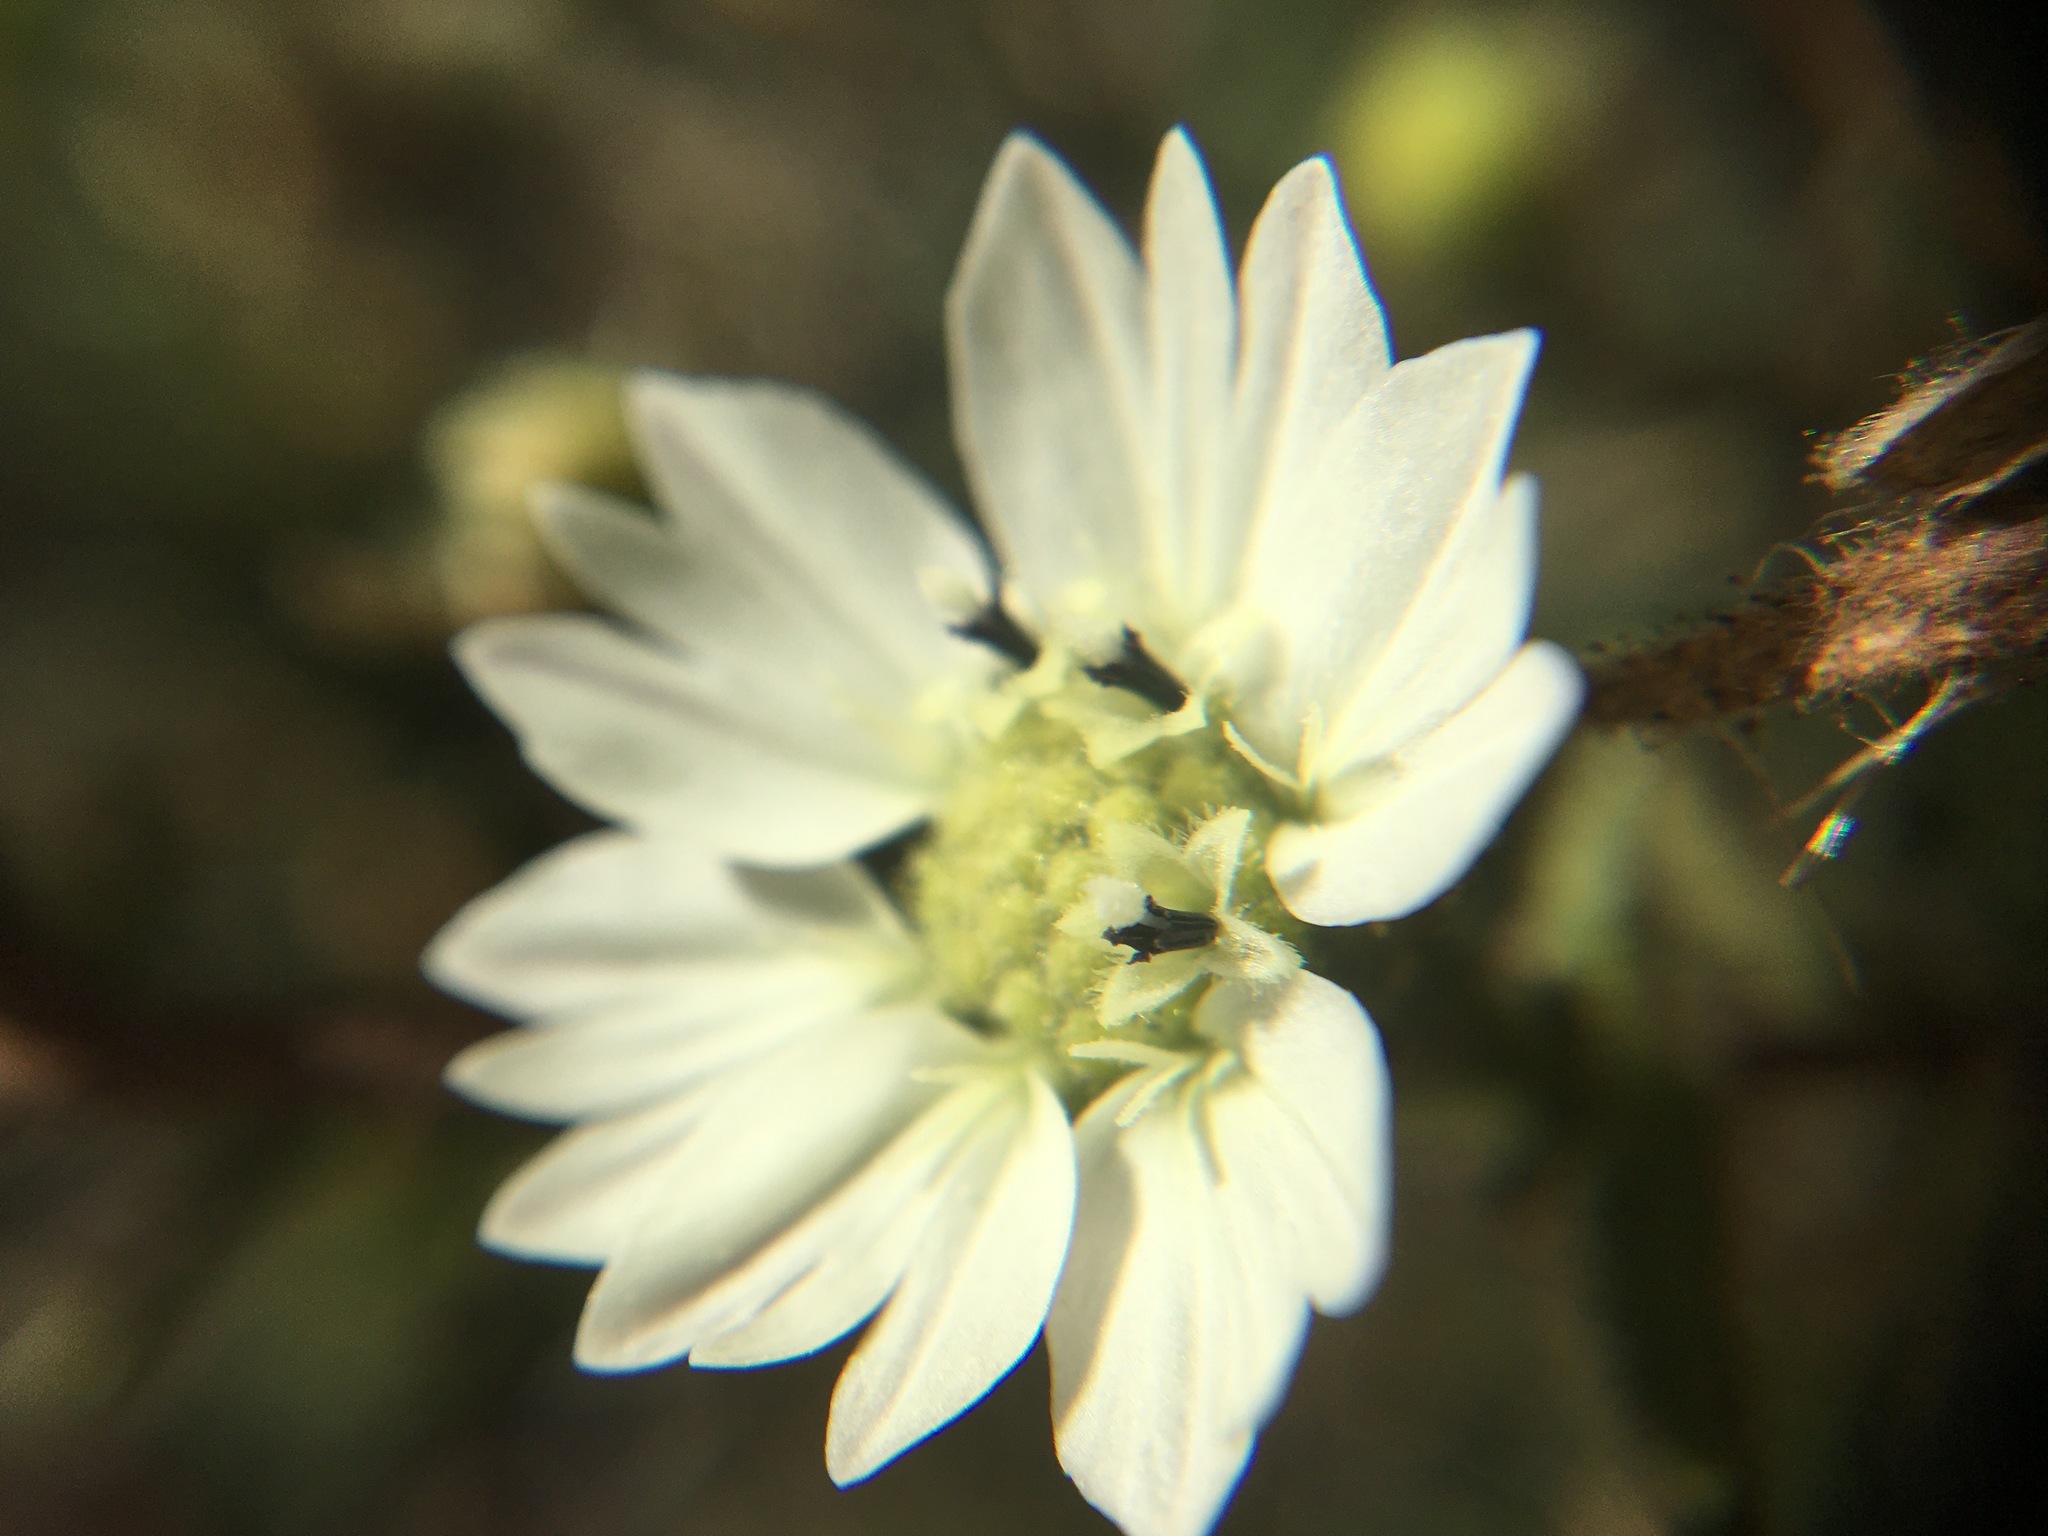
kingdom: Plantae
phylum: Tracheophyta
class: Magnoliopsida
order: Asterales
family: Asteraceae
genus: Hemizonia
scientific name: Hemizonia congesta
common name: Hayfield tarweed
